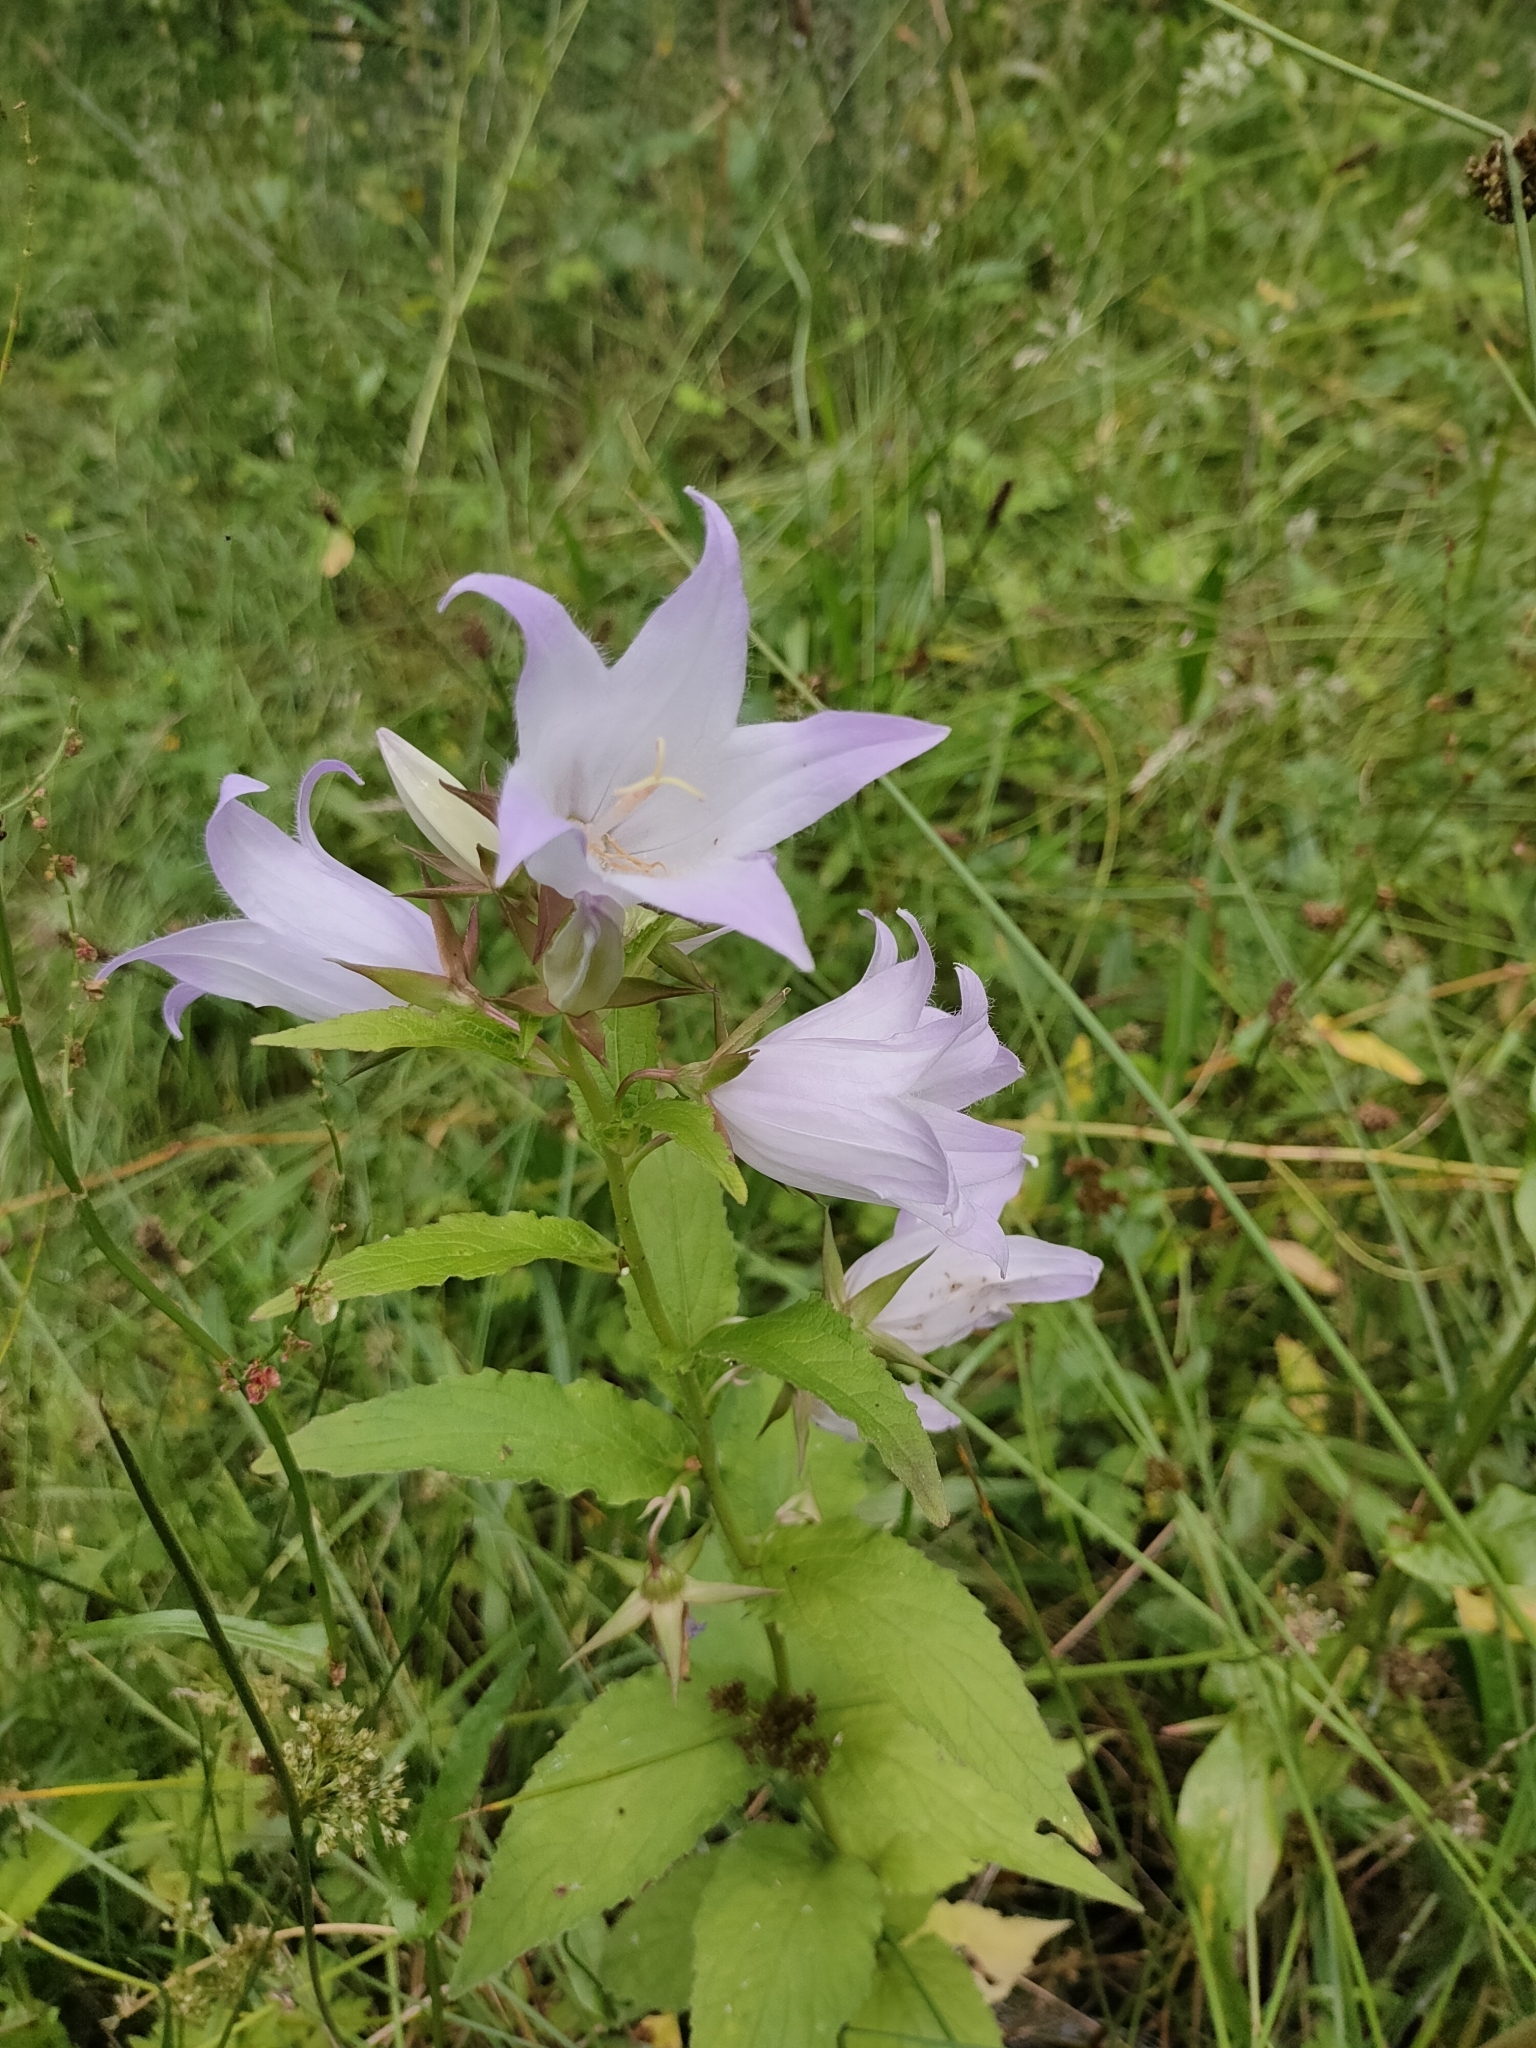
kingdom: Plantae
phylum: Tracheophyta
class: Magnoliopsida
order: Asterales
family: Campanulaceae
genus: Campanula
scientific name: Campanula latifolia
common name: Giant bellflower
